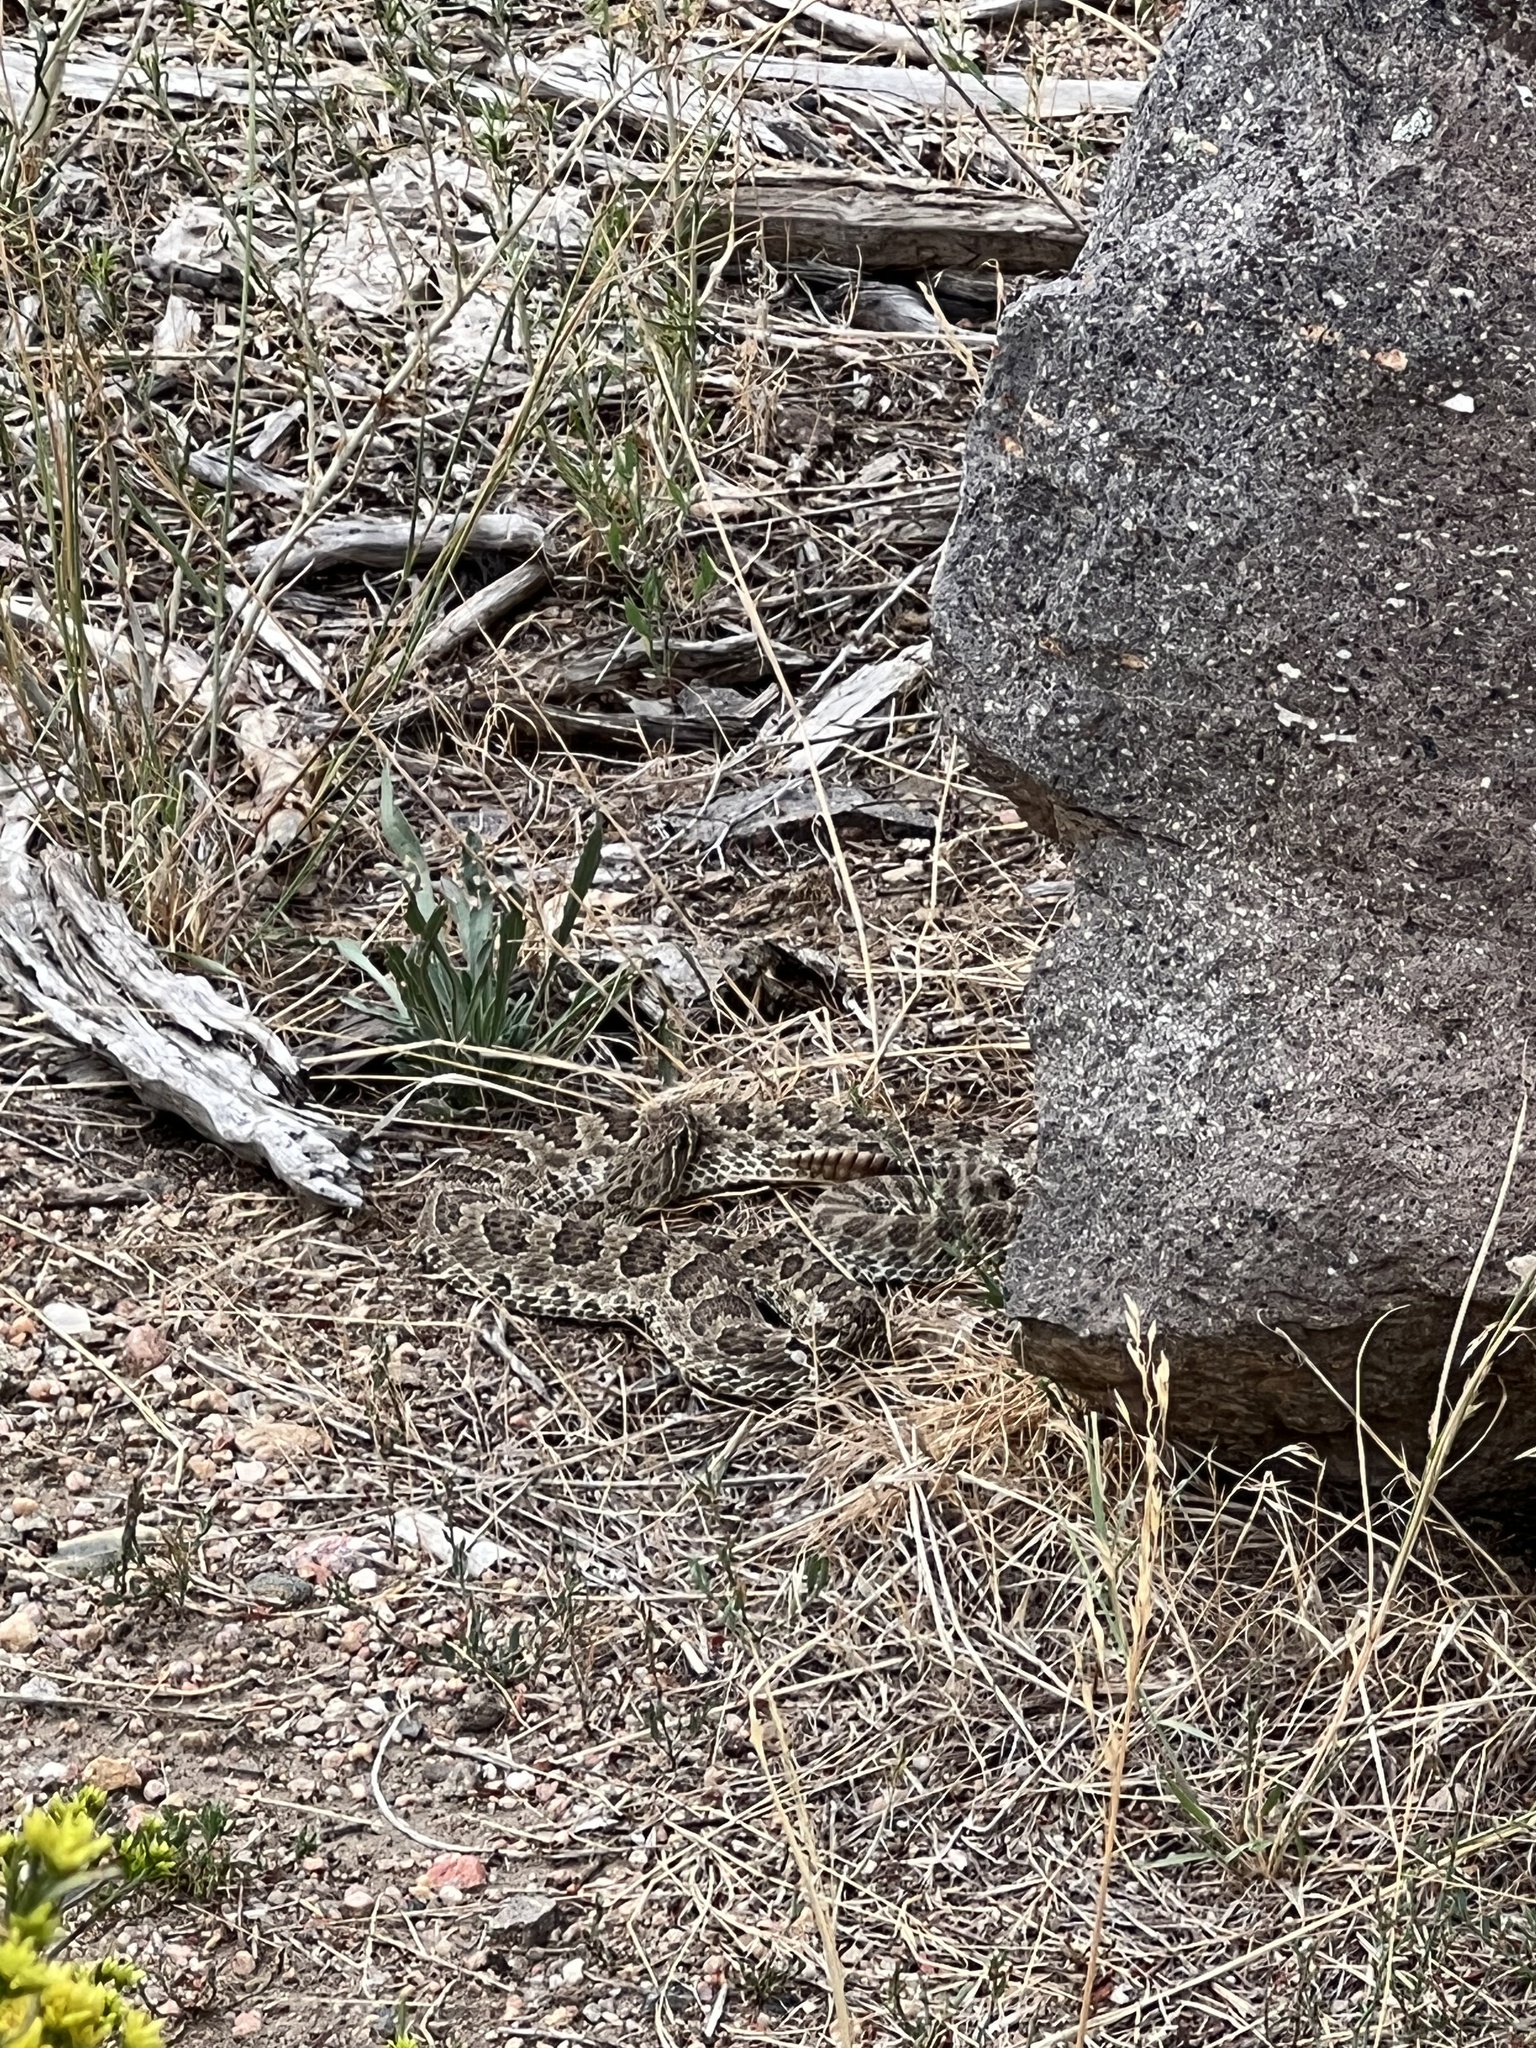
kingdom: Animalia
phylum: Chordata
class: Squamata
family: Viperidae
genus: Crotalus
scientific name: Crotalus viridis
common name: Prairie rattlesnake
